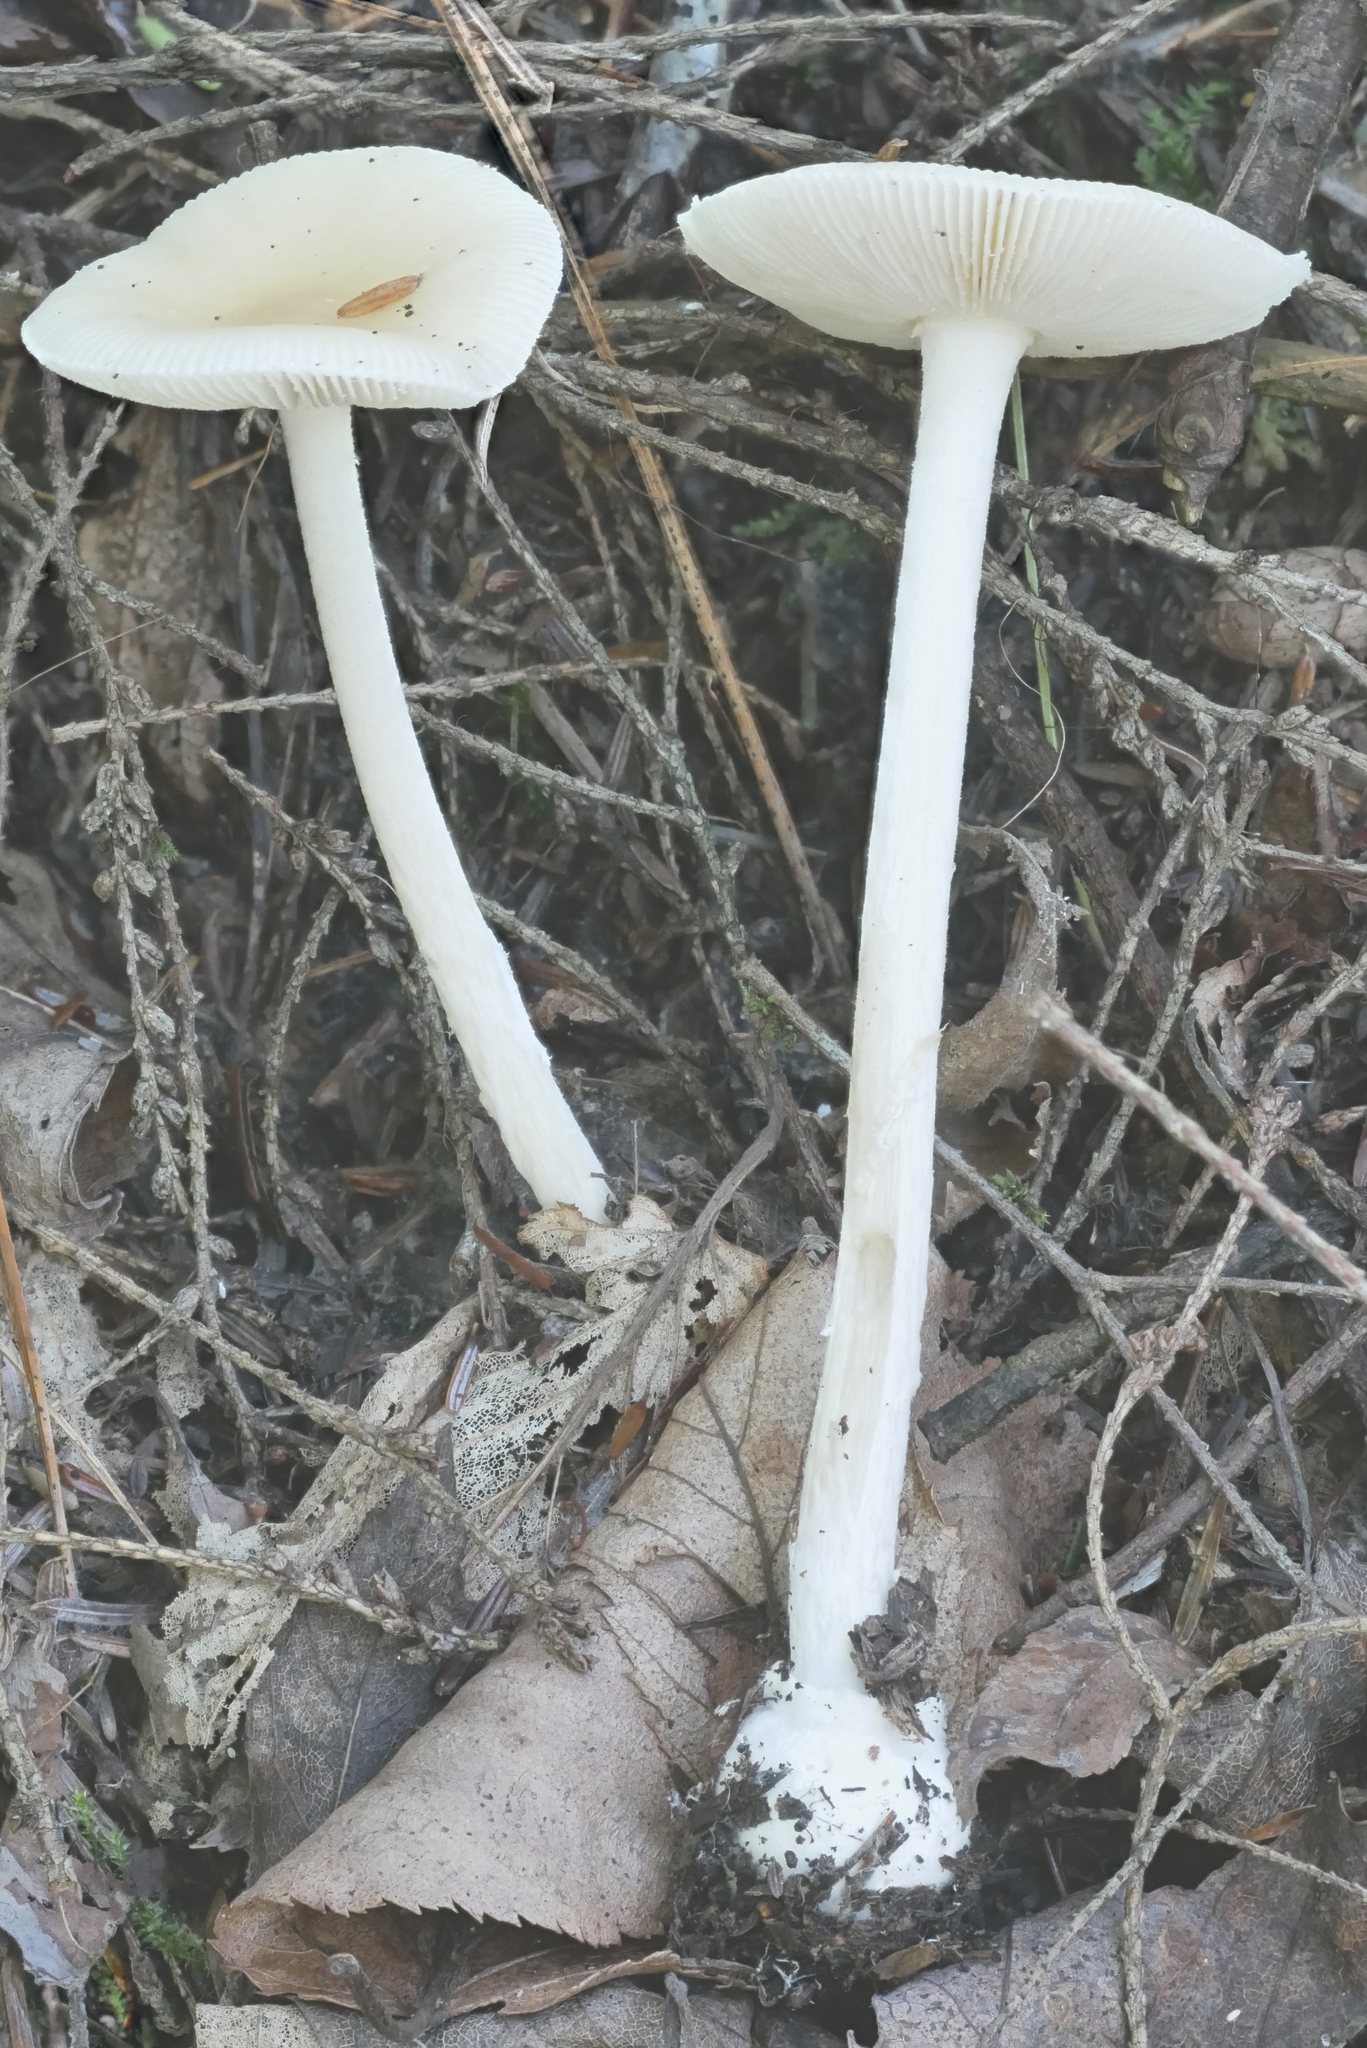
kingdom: Fungi
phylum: Basidiomycota
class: Agaricomycetes
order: Agaricales
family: Amanitaceae
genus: Amanita
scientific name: Amanita albocreata
